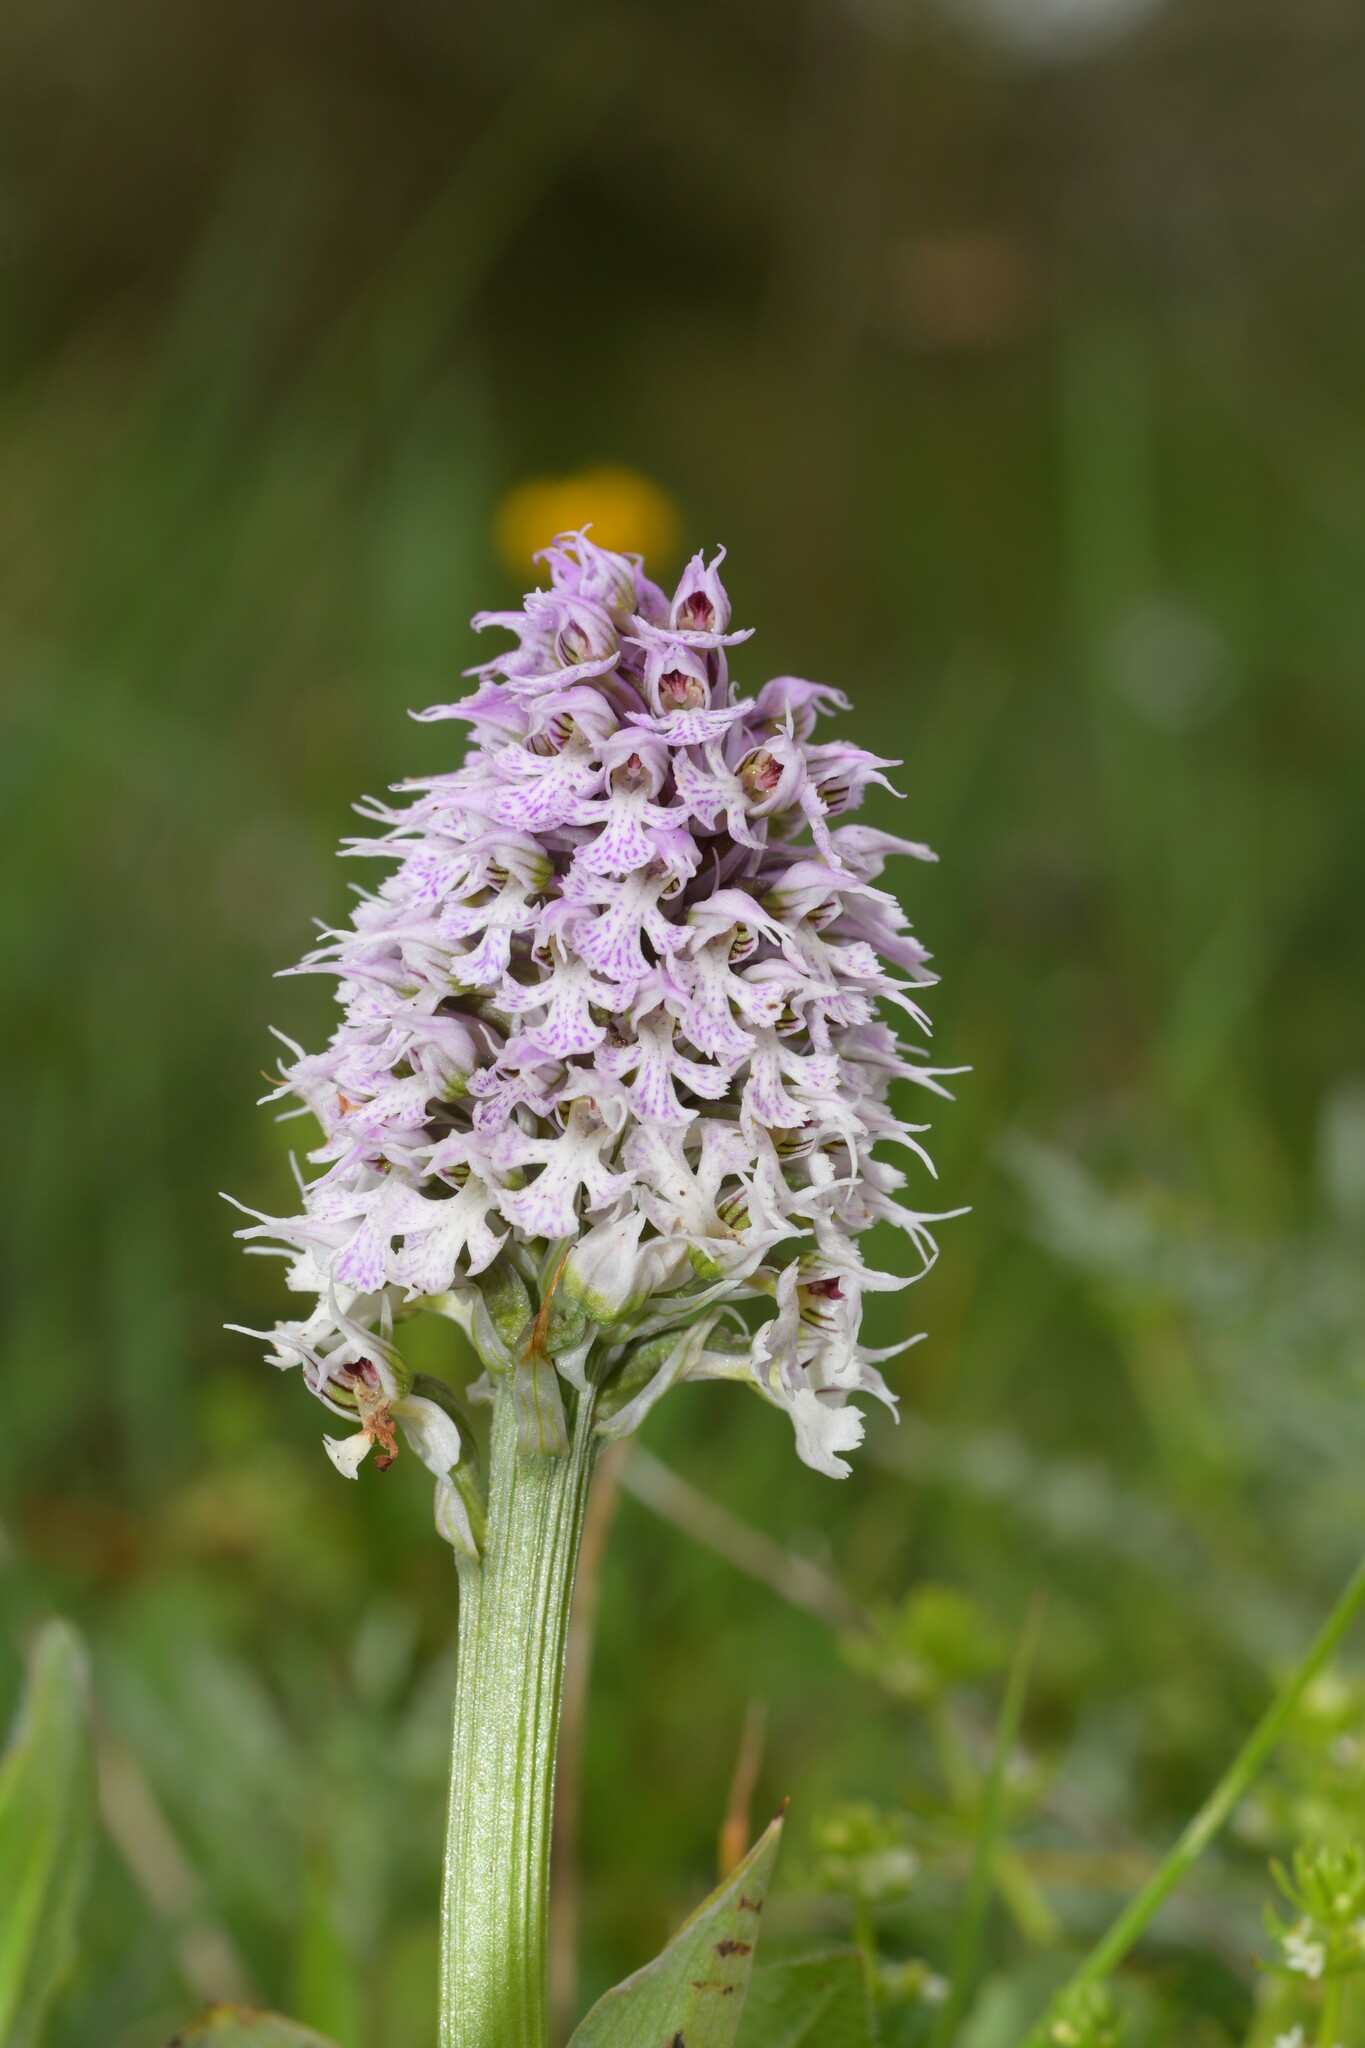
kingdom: Plantae
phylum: Tracheophyta
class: Liliopsida
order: Asparagales
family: Orchidaceae
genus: Neotinea
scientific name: Neotinea conica
